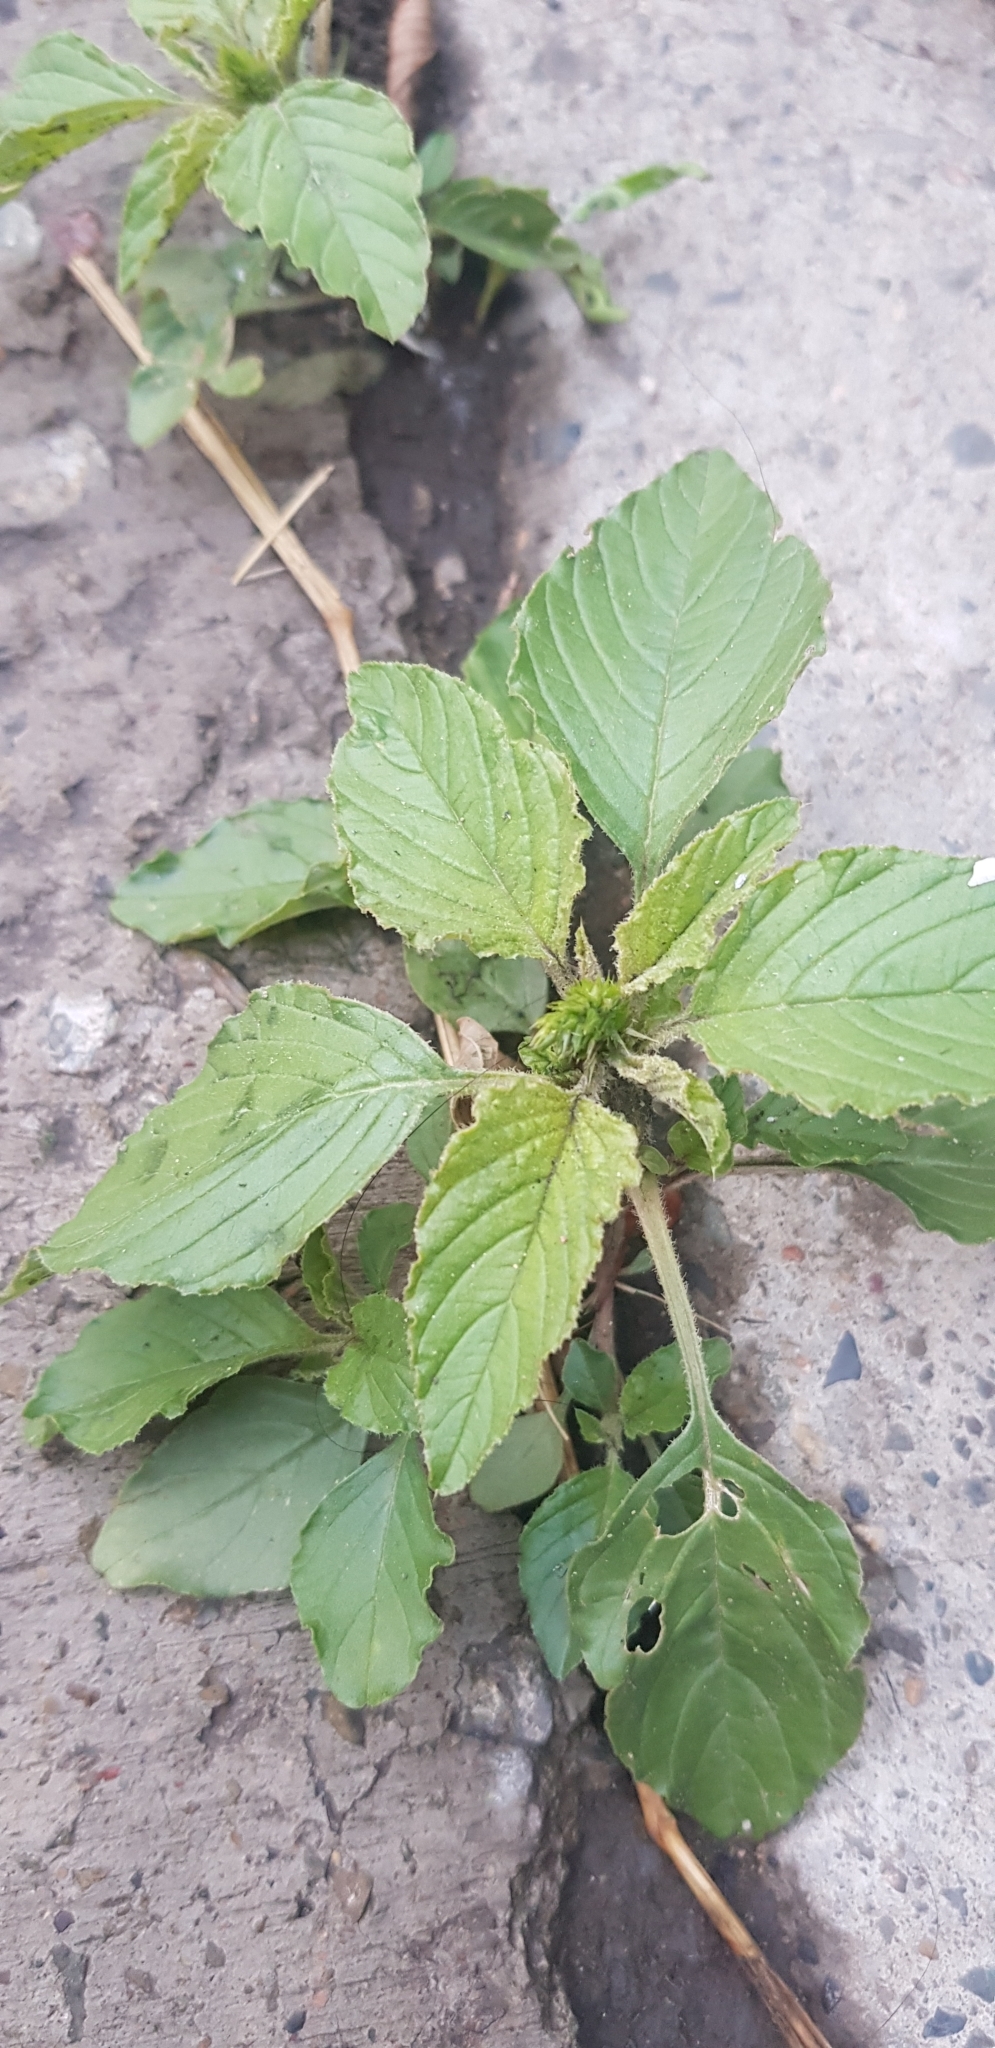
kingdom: Plantae
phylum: Tracheophyta
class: Magnoliopsida
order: Caryophyllales
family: Amaranthaceae
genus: Amaranthus
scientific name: Amaranthus retroflexus
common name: Redroot amaranth
